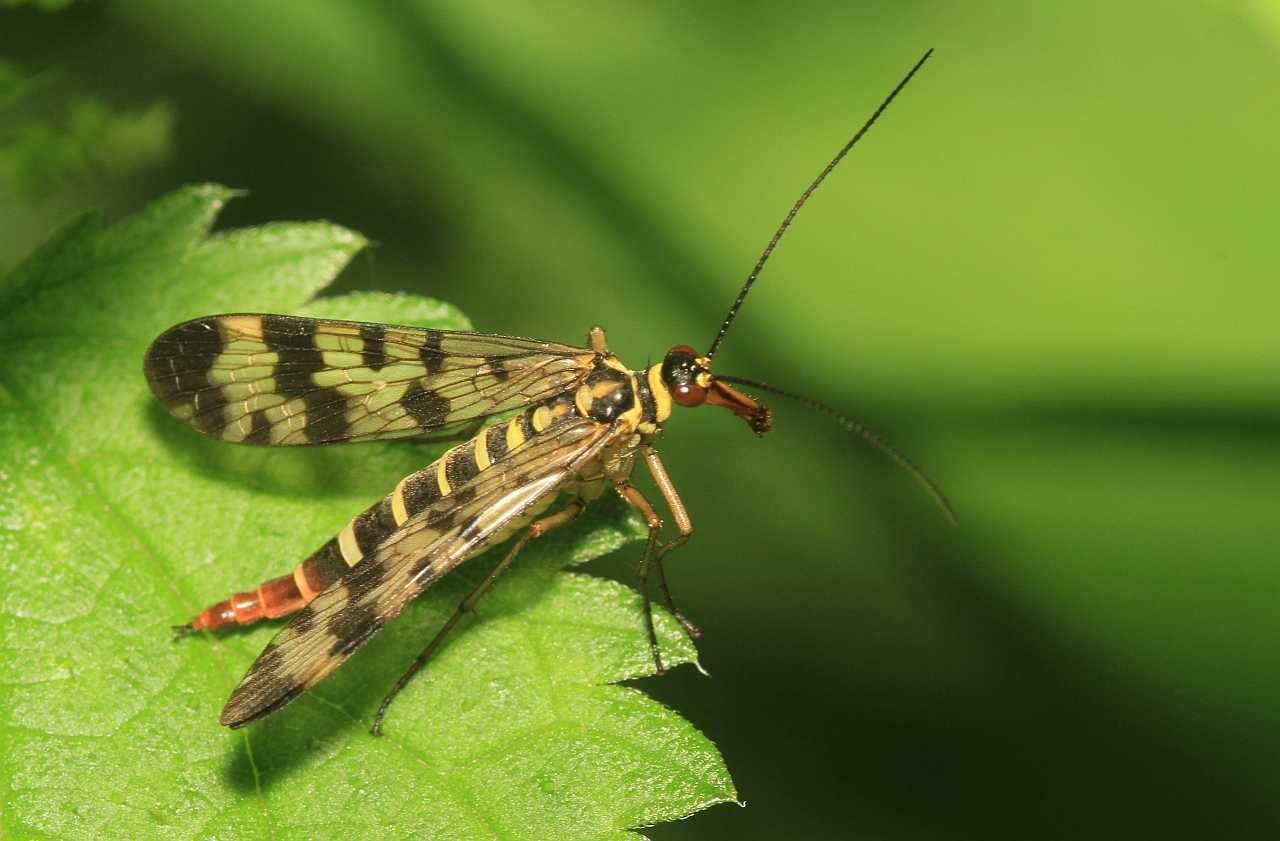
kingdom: Animalia
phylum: Arthropoda
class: Insecta
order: Mecoptera
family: Panorpidae
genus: Panorpa
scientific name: Panorpa communis
